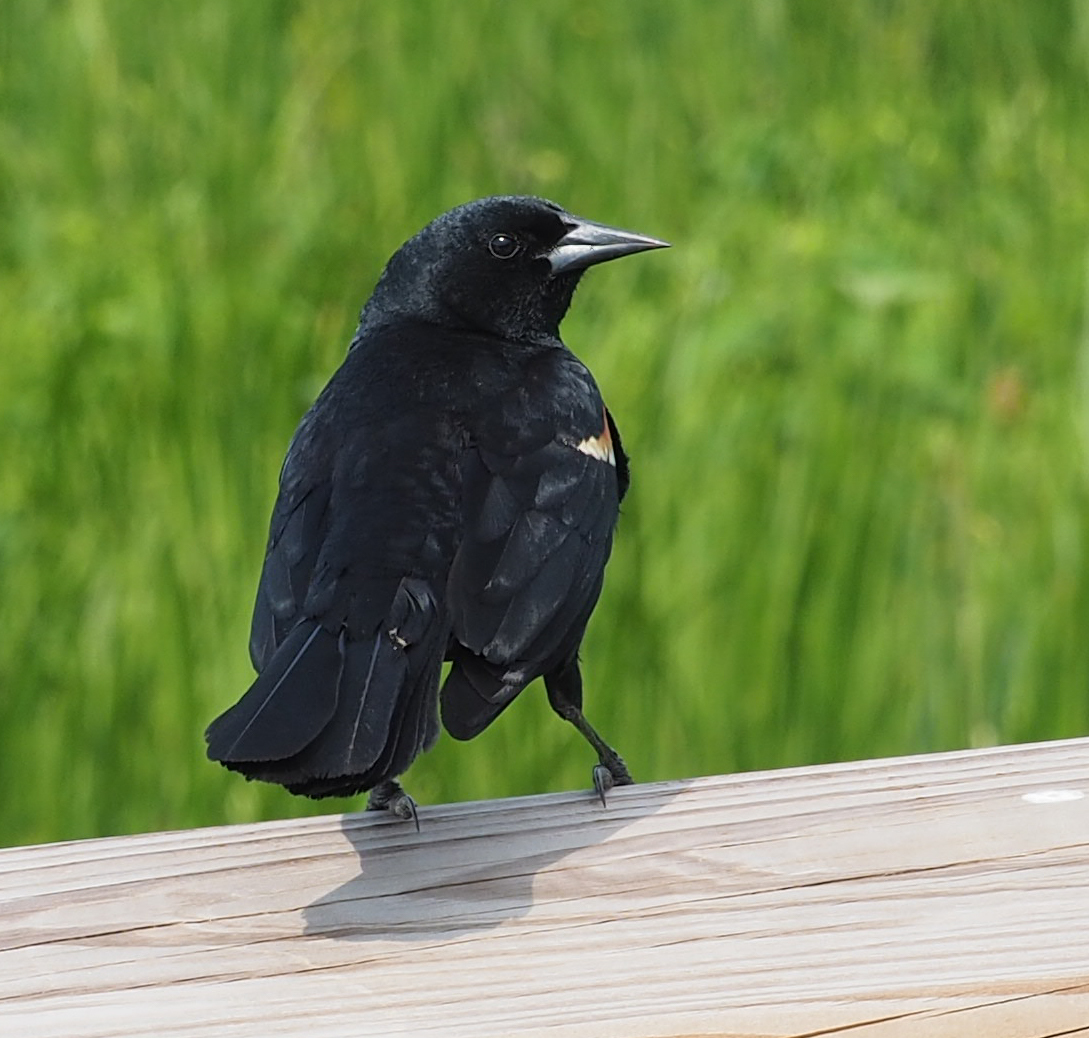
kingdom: Animalia
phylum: Chordata
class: Aves
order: Passeriformes
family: Icteridae
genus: Agelaius
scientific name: Agelaius phoeniceus
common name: Red-winged blackbird
